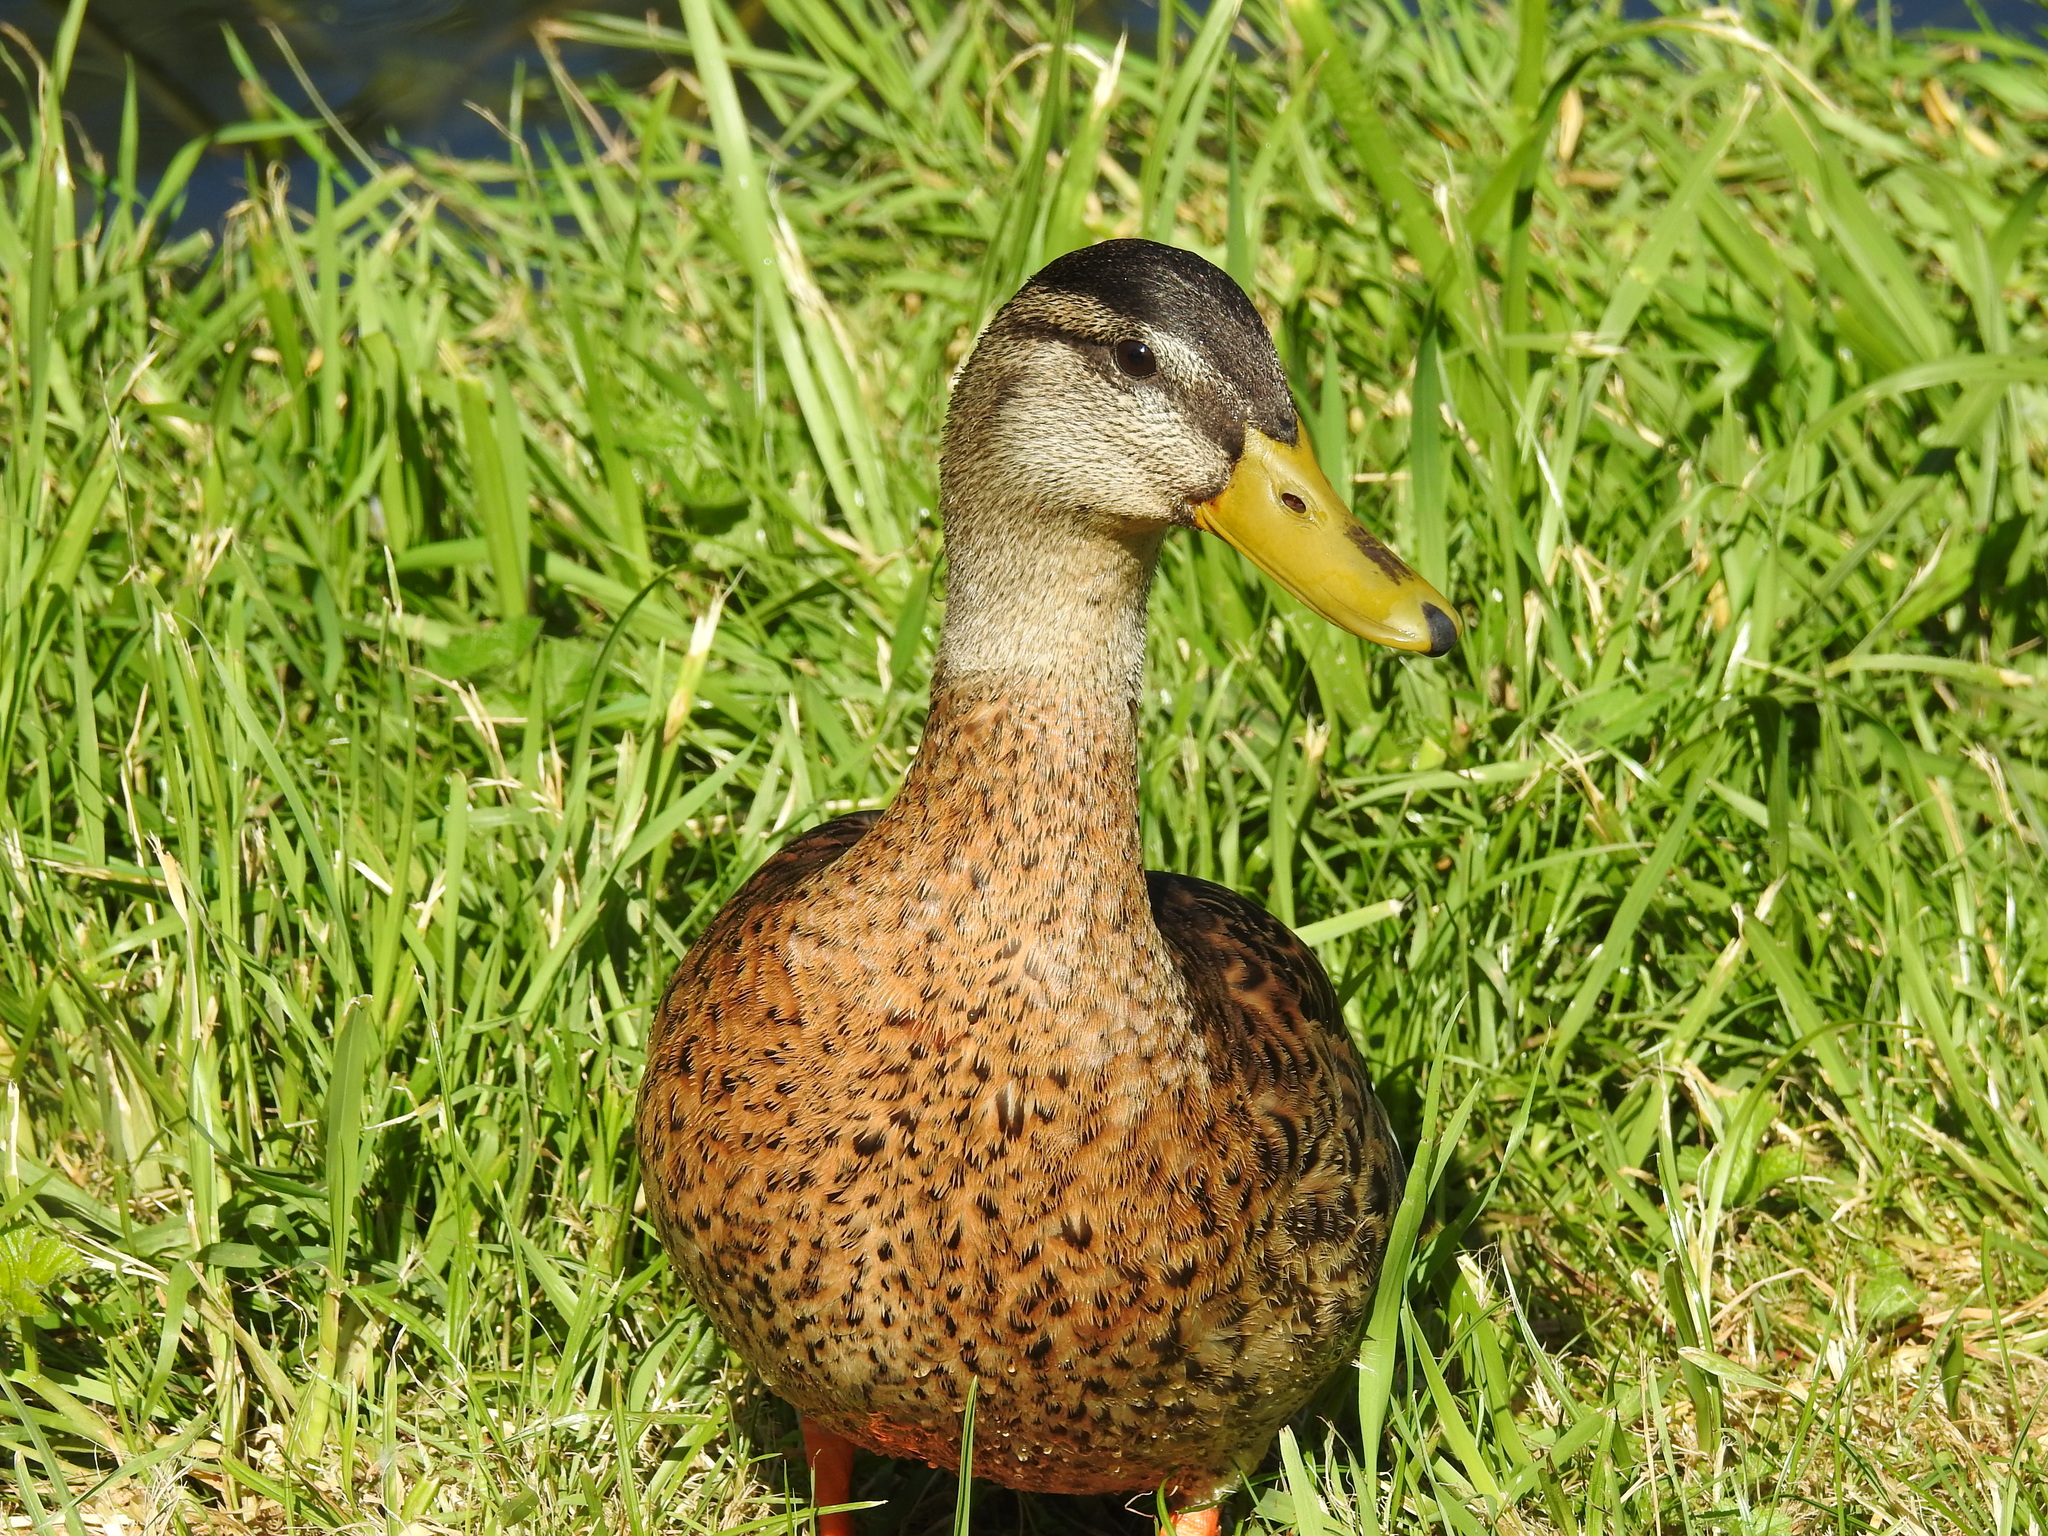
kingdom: Animalia
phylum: Chordata
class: Aves
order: Anseriformes
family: Anatidae
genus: Anas
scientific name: Anas platyrhynchos
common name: Mallard
